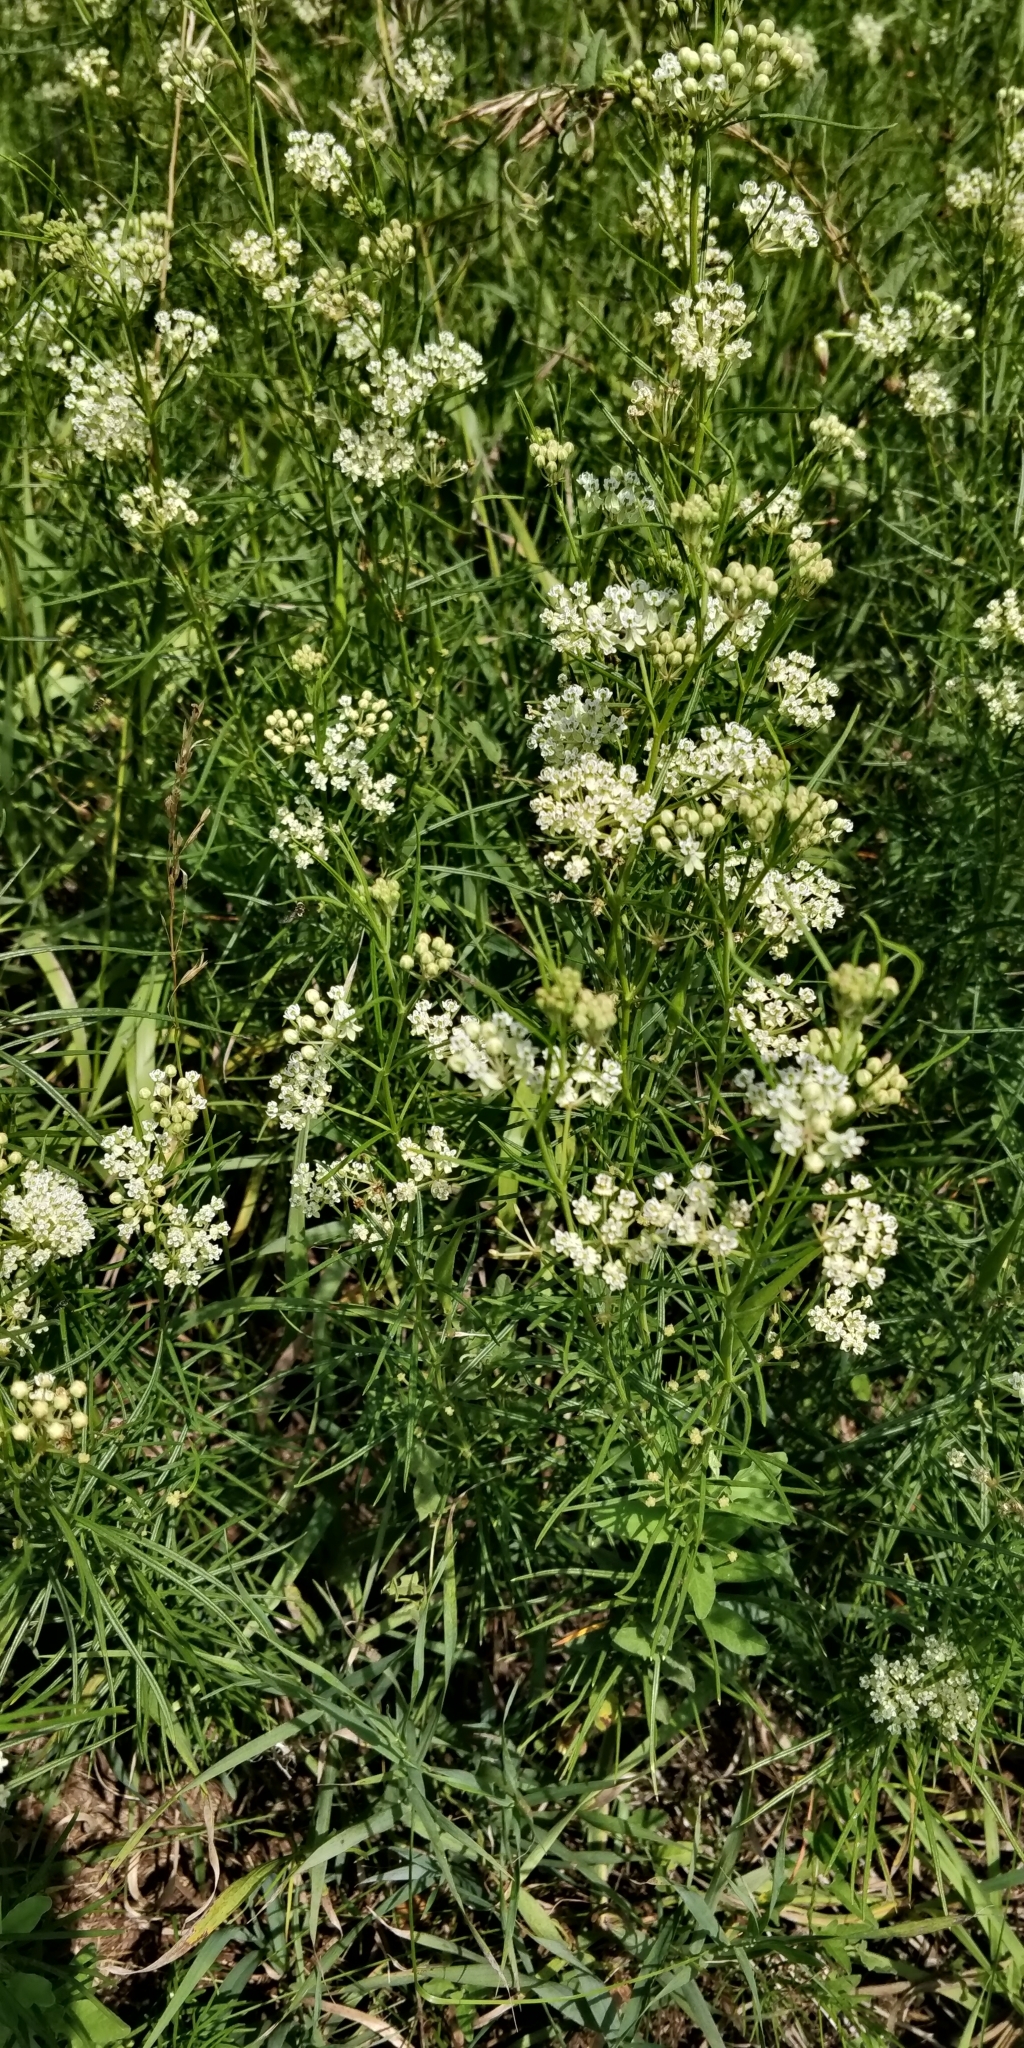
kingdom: Plantae
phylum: Tracheophyta
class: Magnoliopsida
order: Gentianales
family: Apocynaceae
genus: Asclepias
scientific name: Asclepias verticillata
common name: Eastern whorled milkweed
